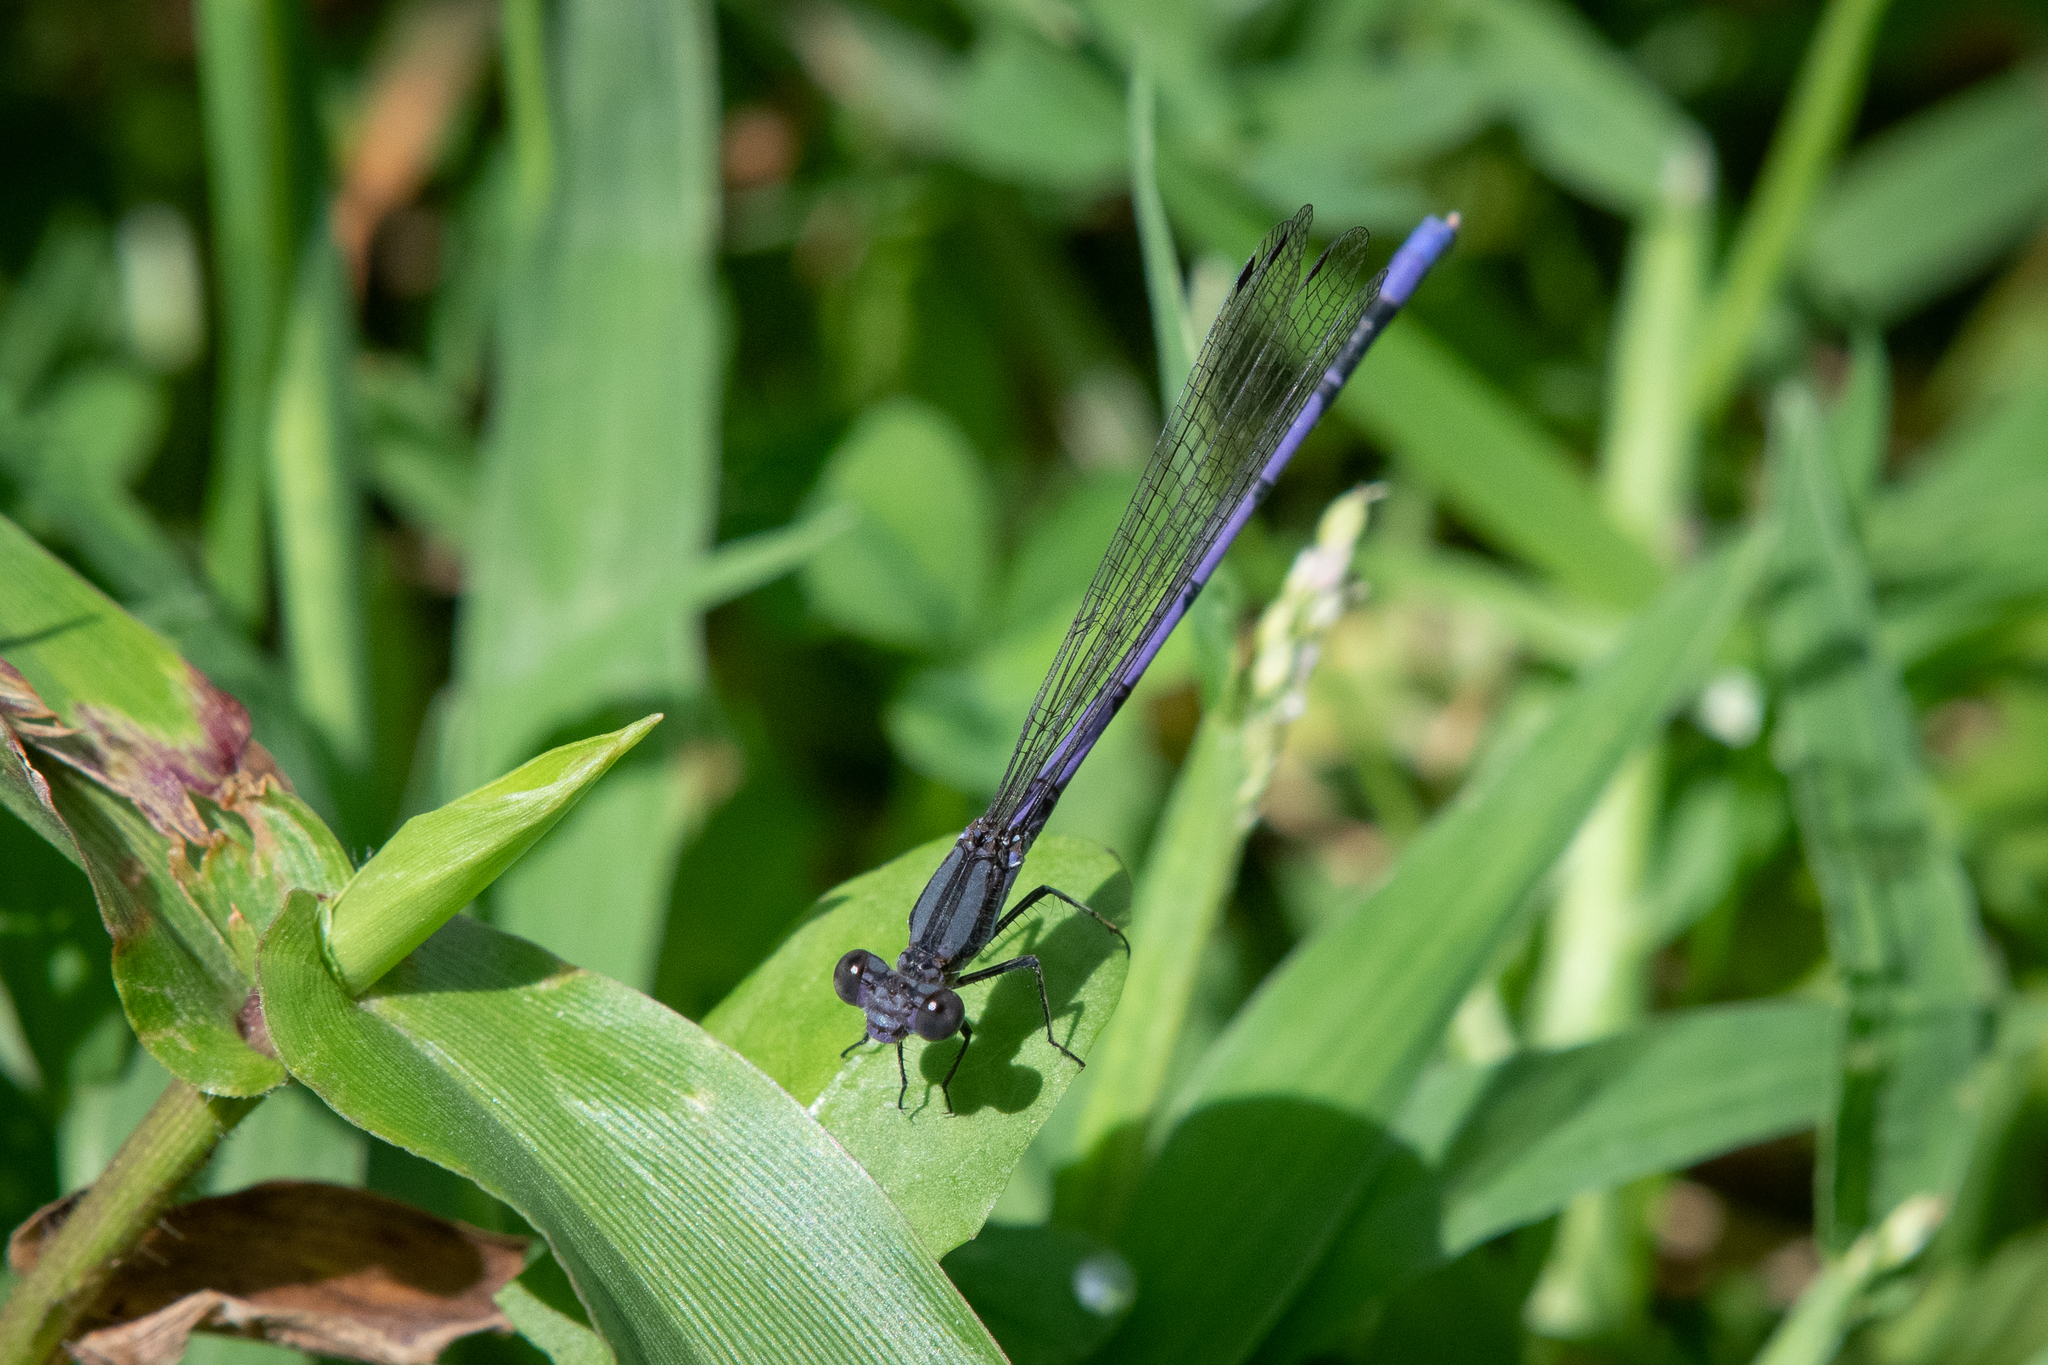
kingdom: Animalia
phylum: Arthropoda
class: Insecta
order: Odonata
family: Coenagrionidae
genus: Argia
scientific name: Argia fumipennis
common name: Variable dancer
